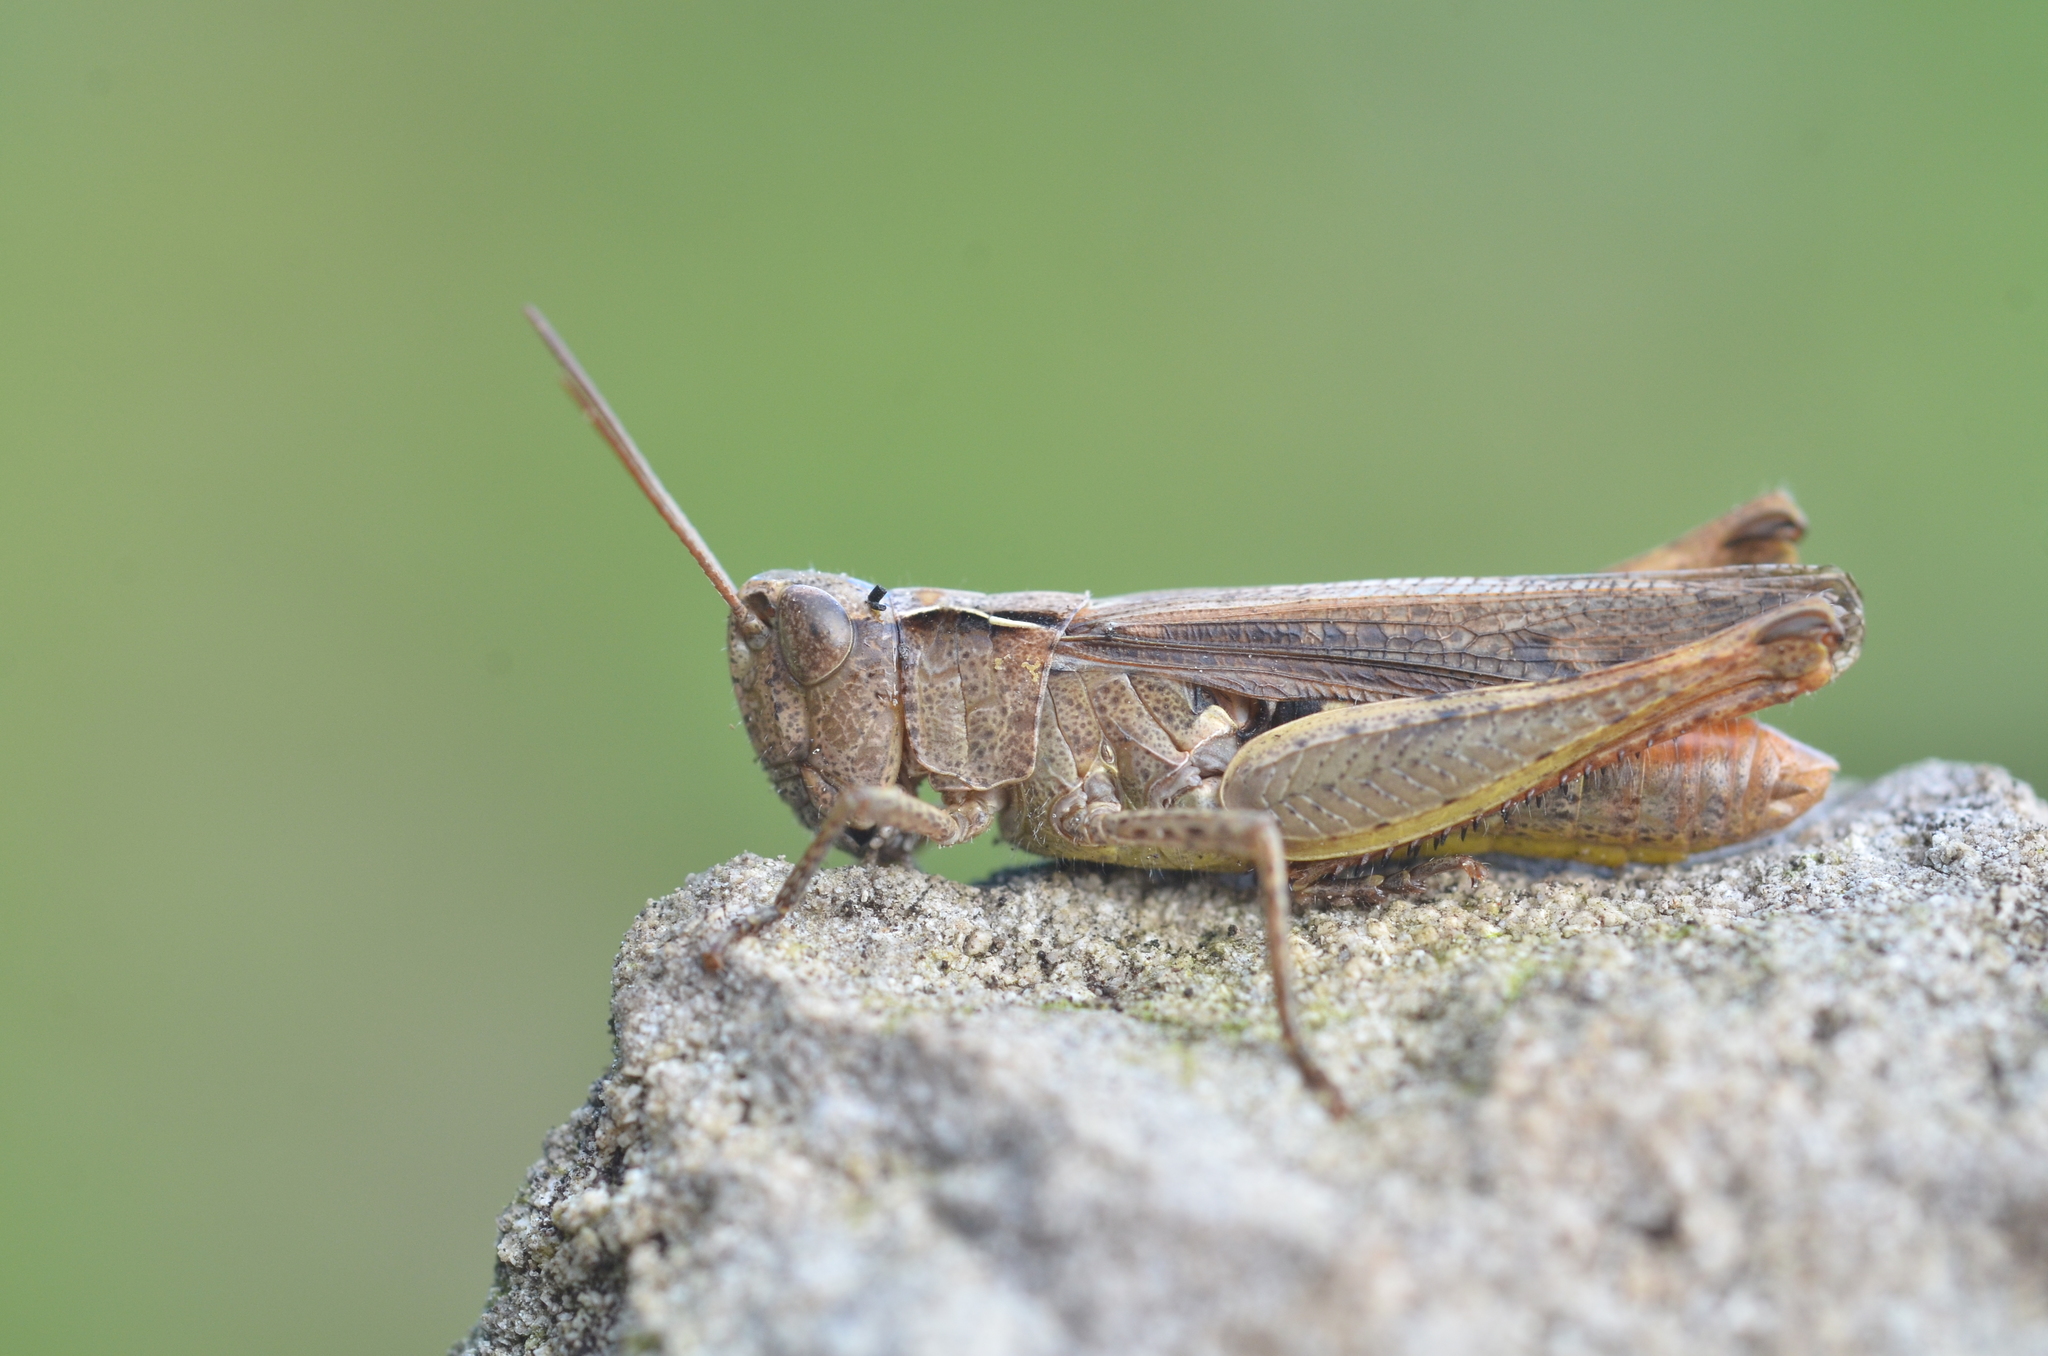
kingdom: Animalia
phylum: Arthropoda
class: Insecta
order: Orthoptera
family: Acrididae
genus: Chorthippus
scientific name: Chorthippus vagans
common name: Heath grasshopper
